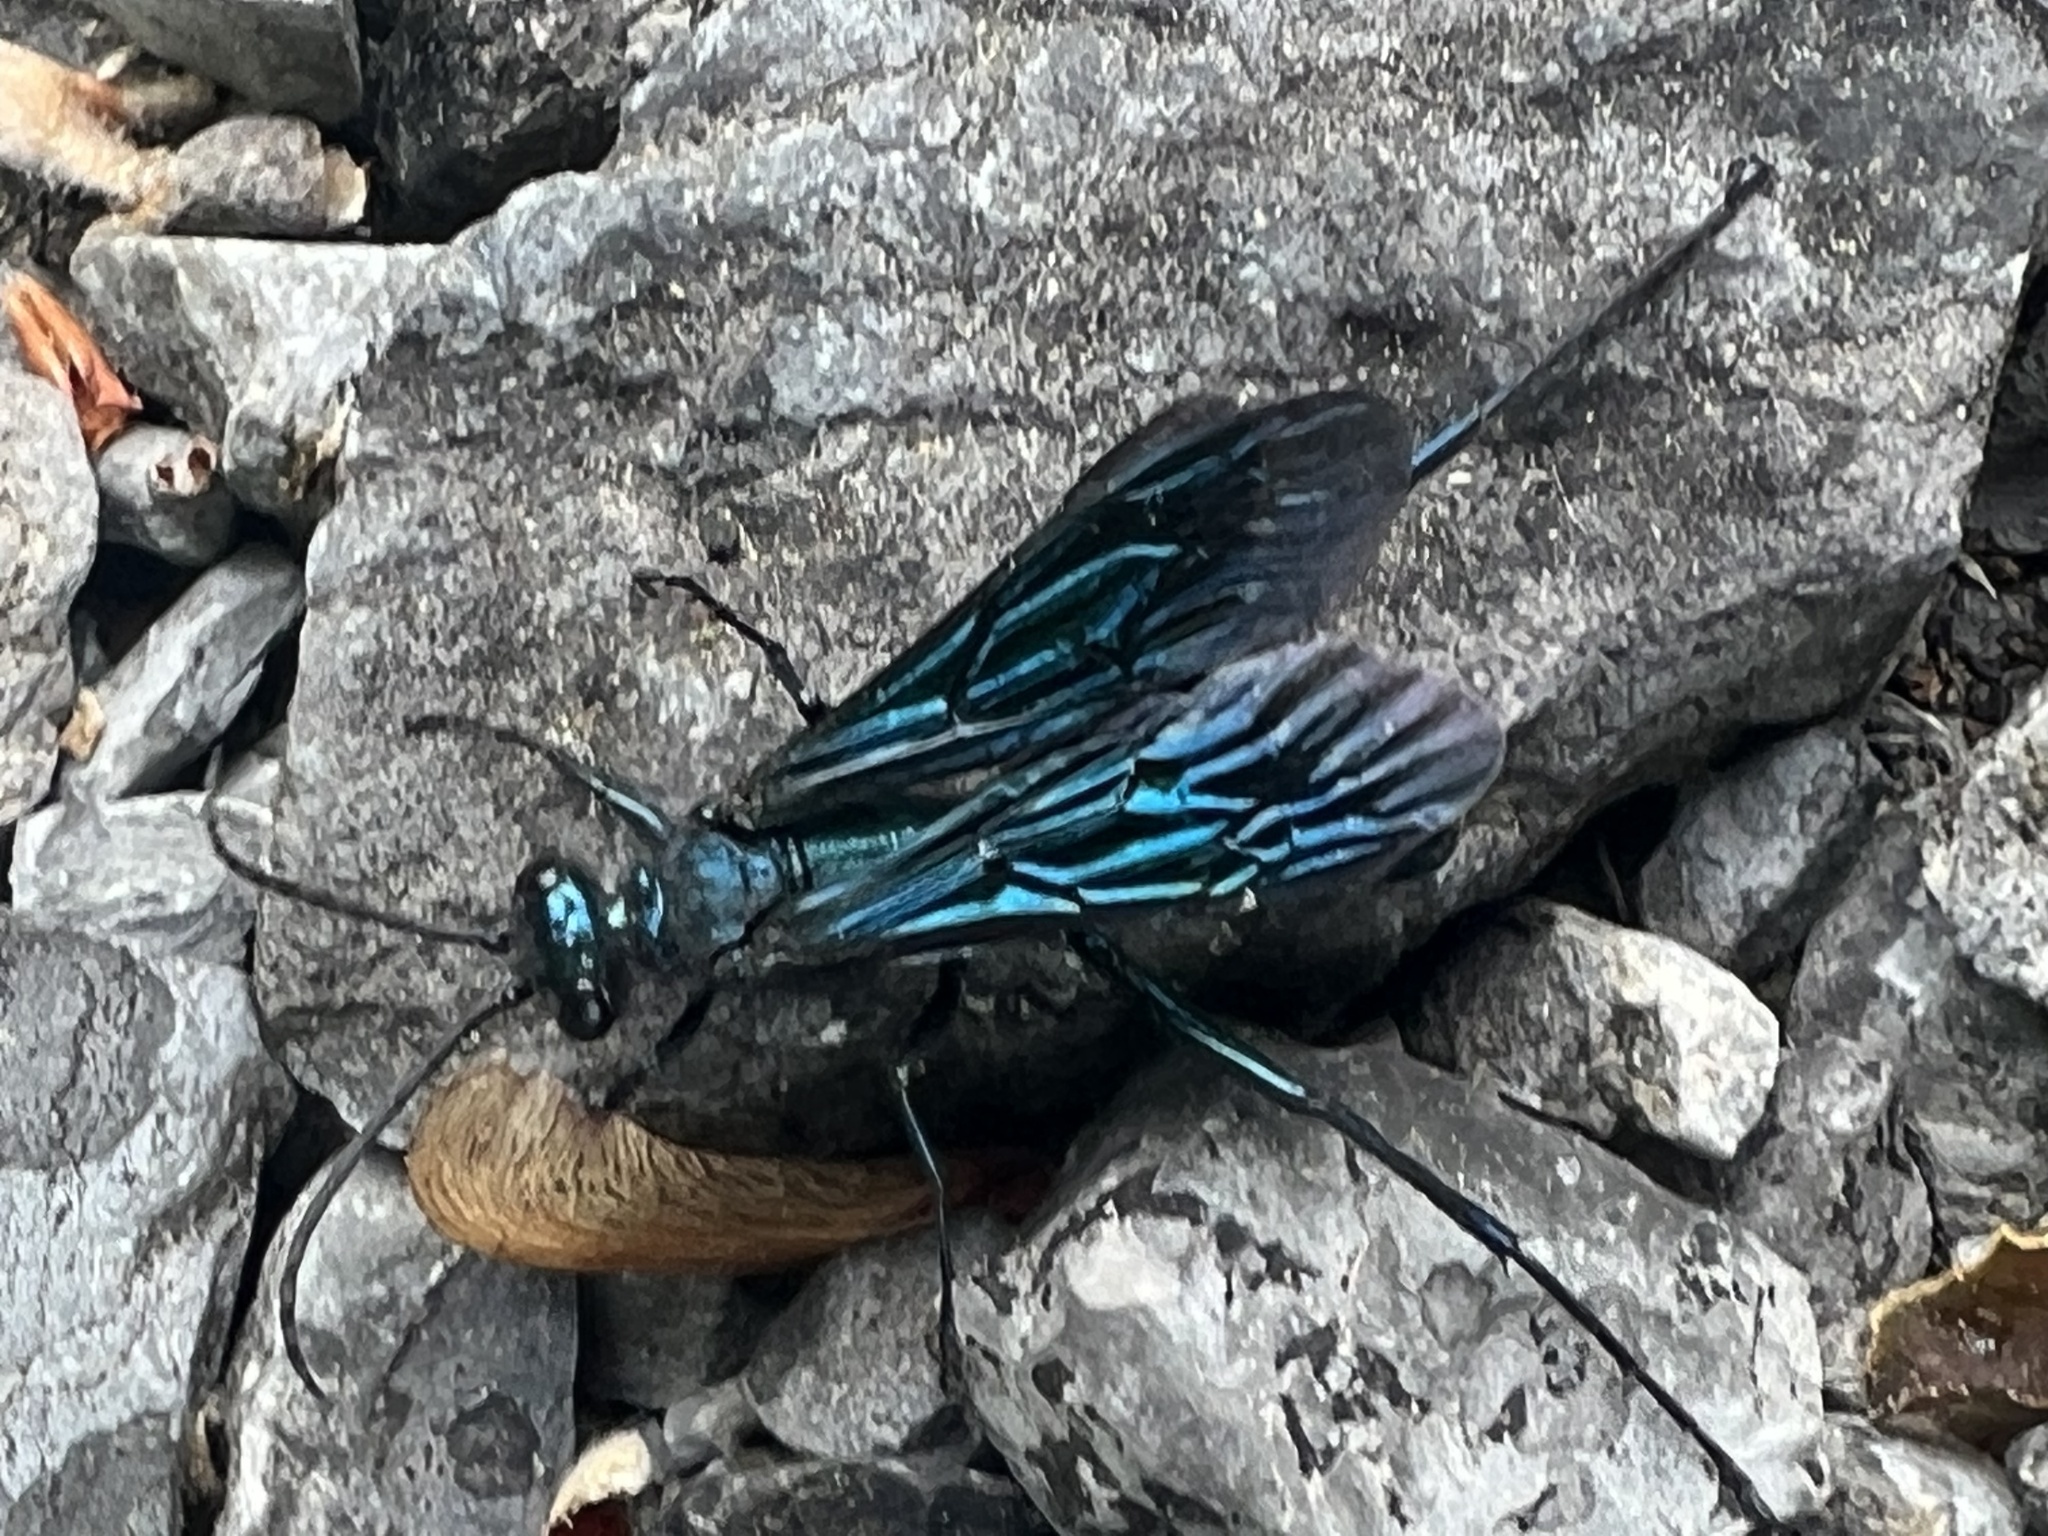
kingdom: Animalia
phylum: Arthropoda
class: Insecta
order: Hymenoptera
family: Sphecidae
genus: Chalybion
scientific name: Chalybion californicum
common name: Mud dauber
